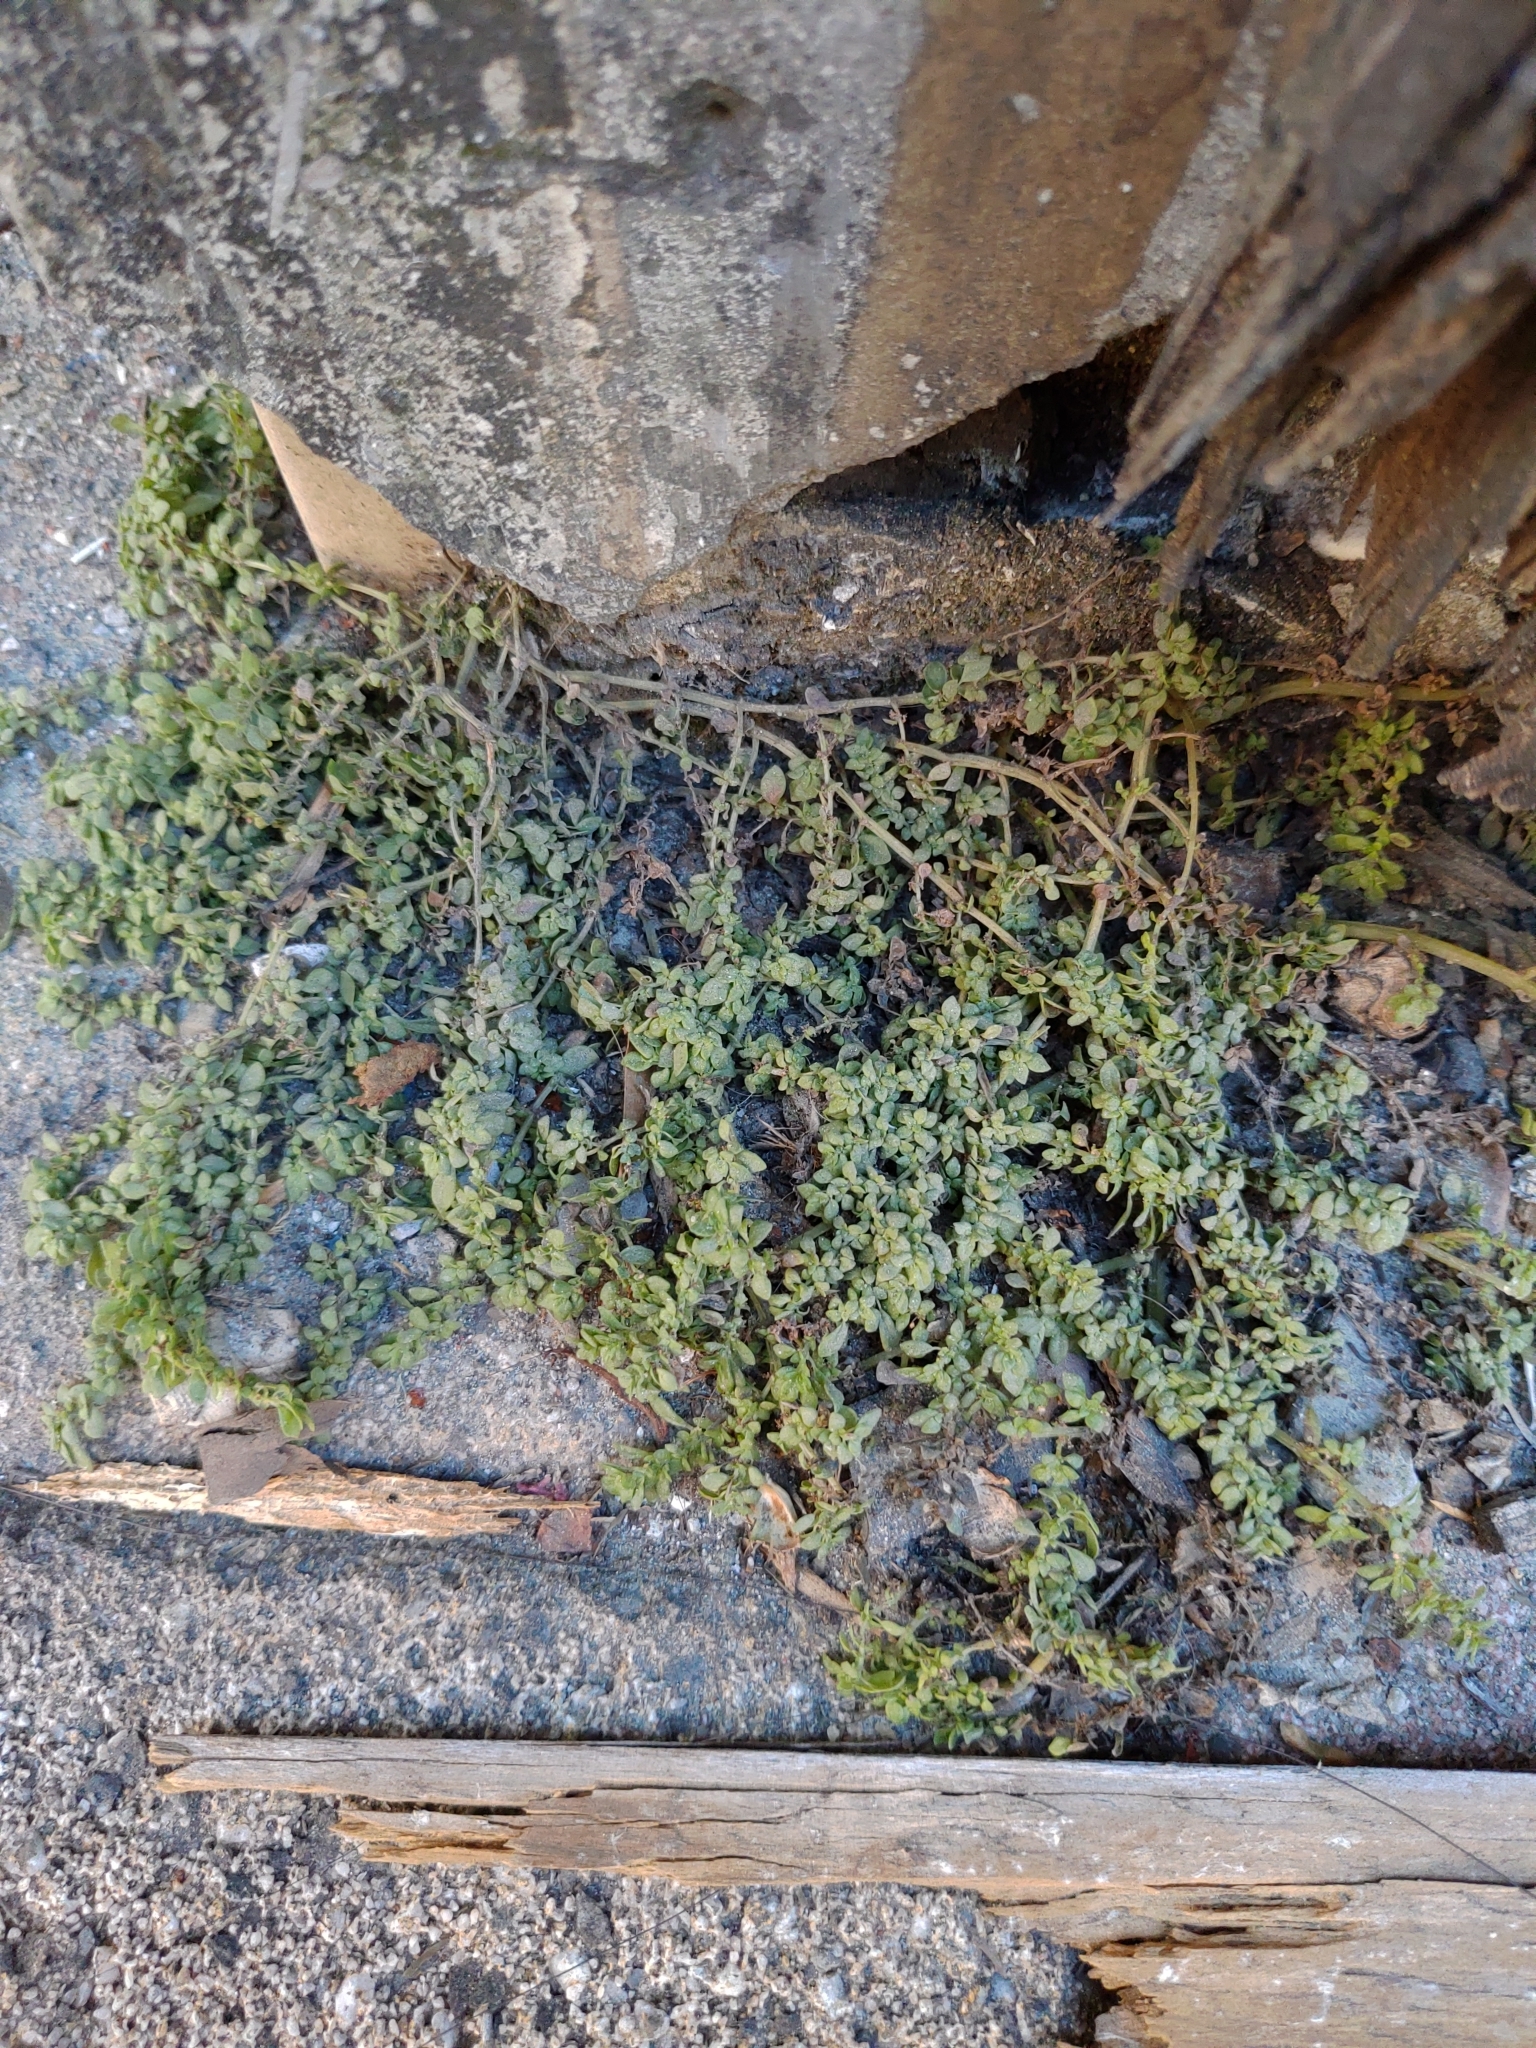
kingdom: Plantae
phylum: Tracheophyta
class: Magnoliopsida
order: Rosales
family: Urticaceae
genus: Pilea
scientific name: Pilea microphylla
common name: Artillery-plant
